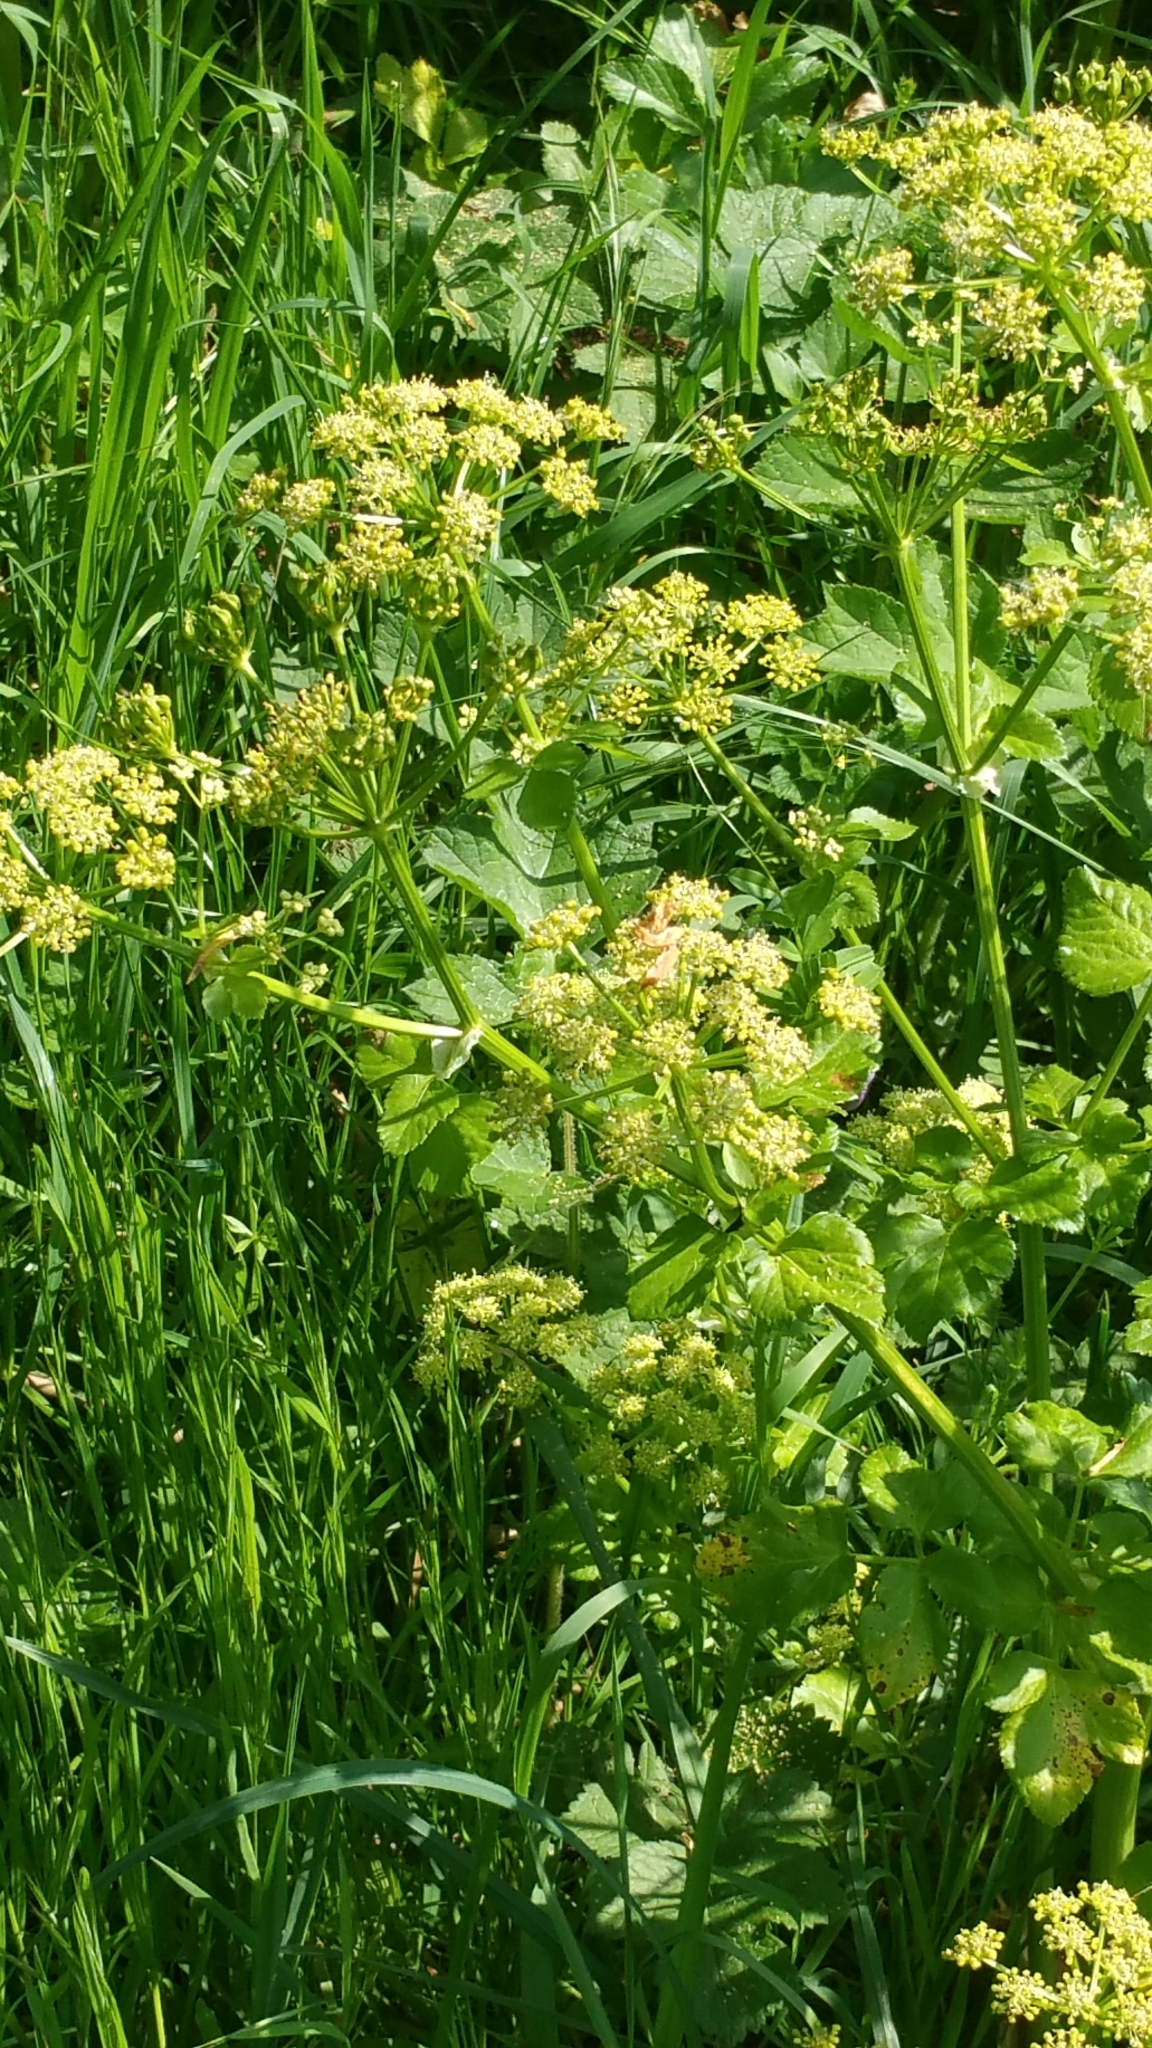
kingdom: Plantae
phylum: Tracheophyta
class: Magnoliopsida
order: Apiales
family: Apiaceae
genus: Smyrnium
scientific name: Smyrnium olusatrum
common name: Alexanders
